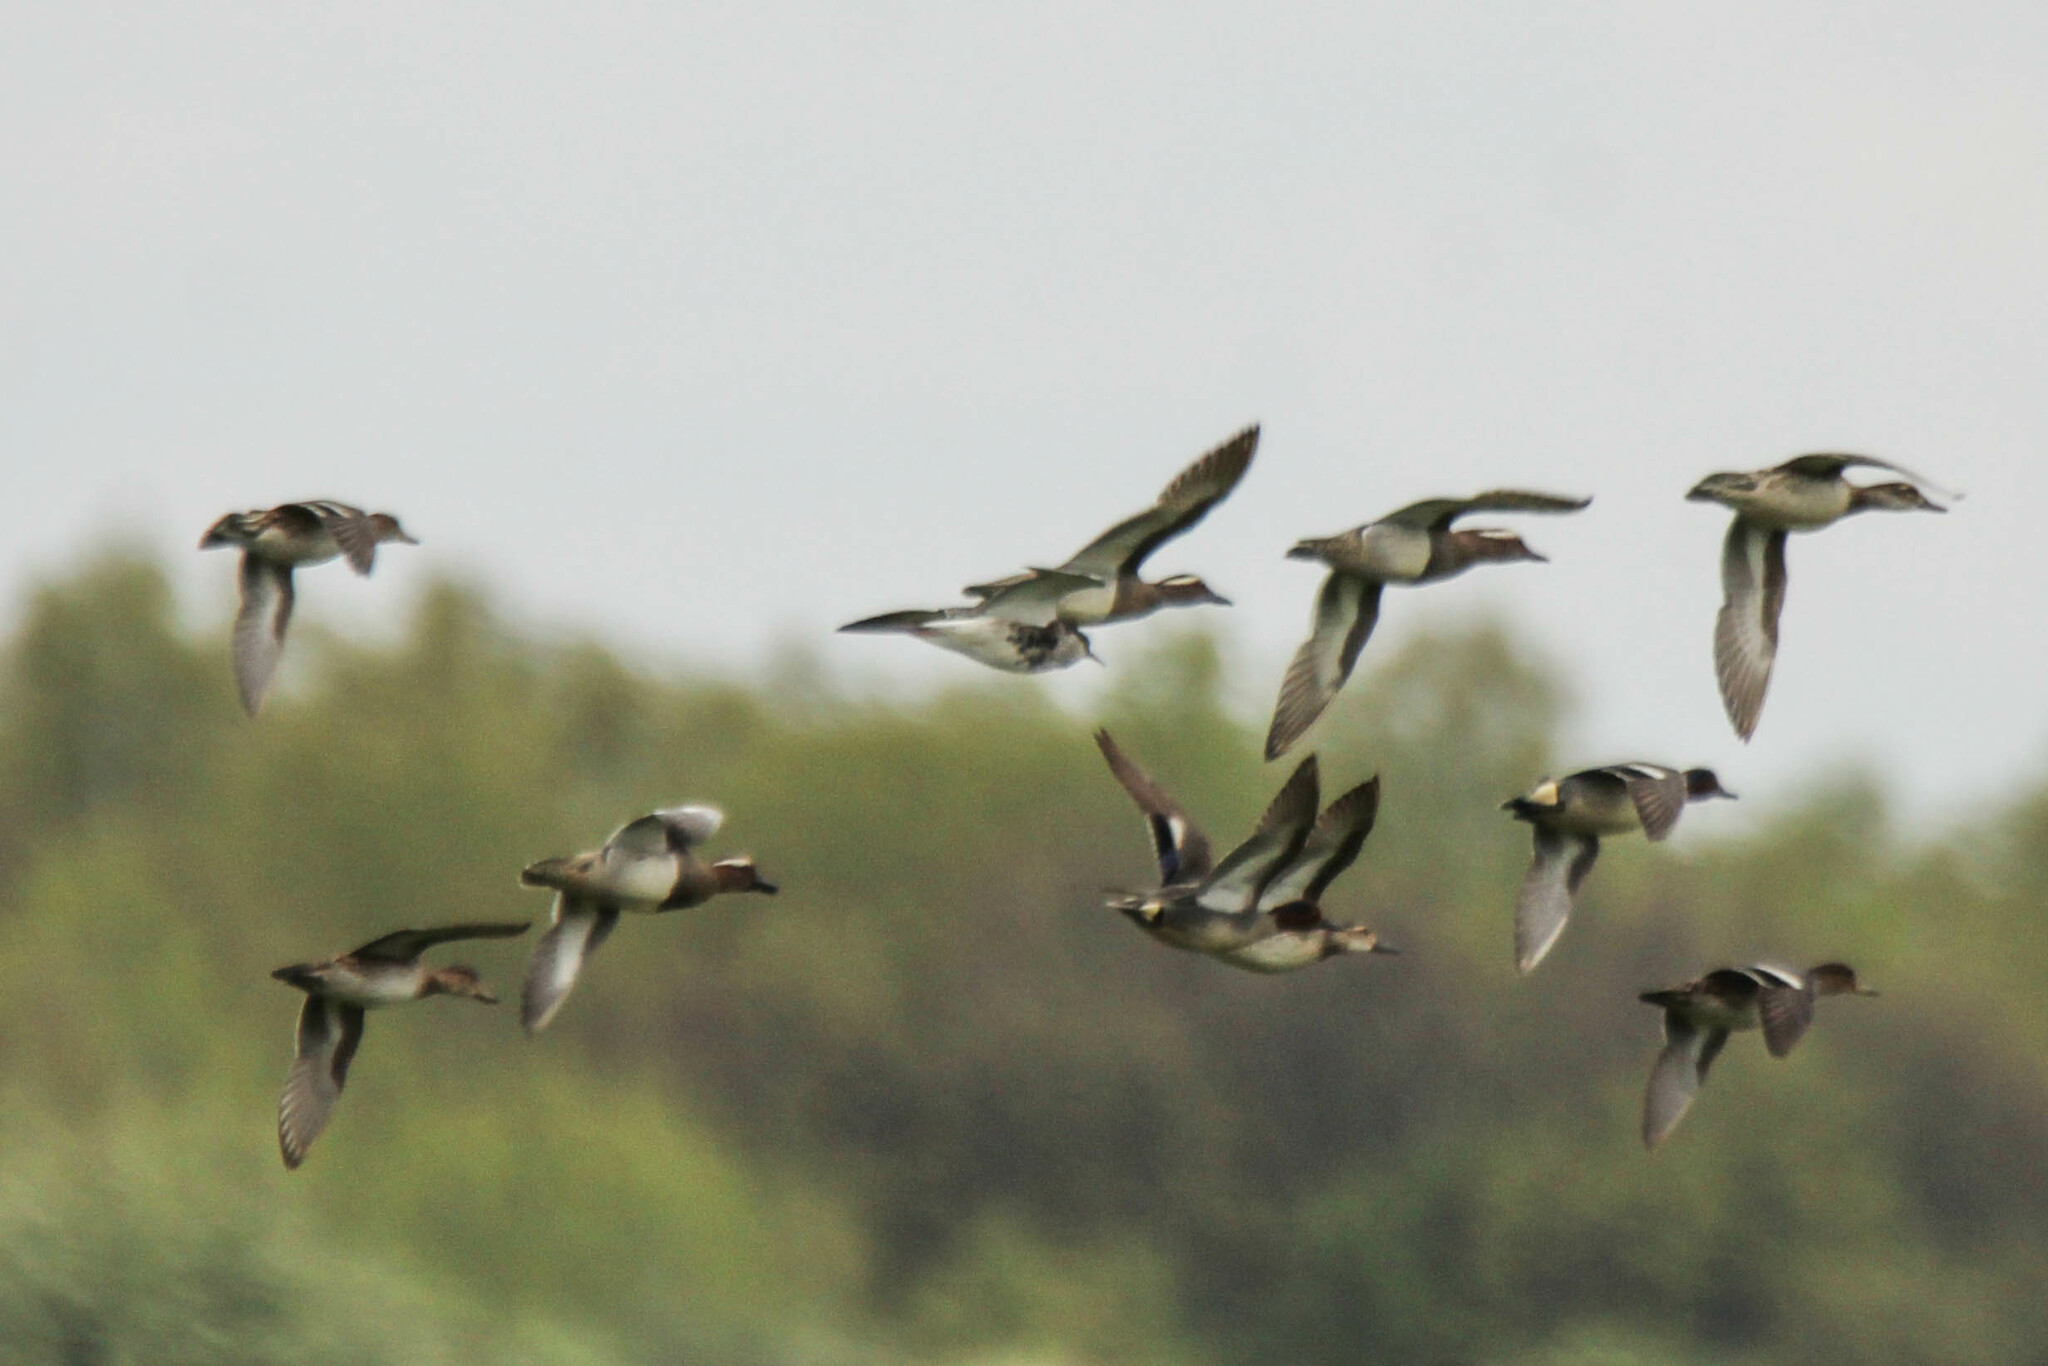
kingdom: Animalia
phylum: Chordata
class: Aves
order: Anseriformes
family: Anatidae
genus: Spatula
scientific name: Spatula querquedula
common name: Garganey
